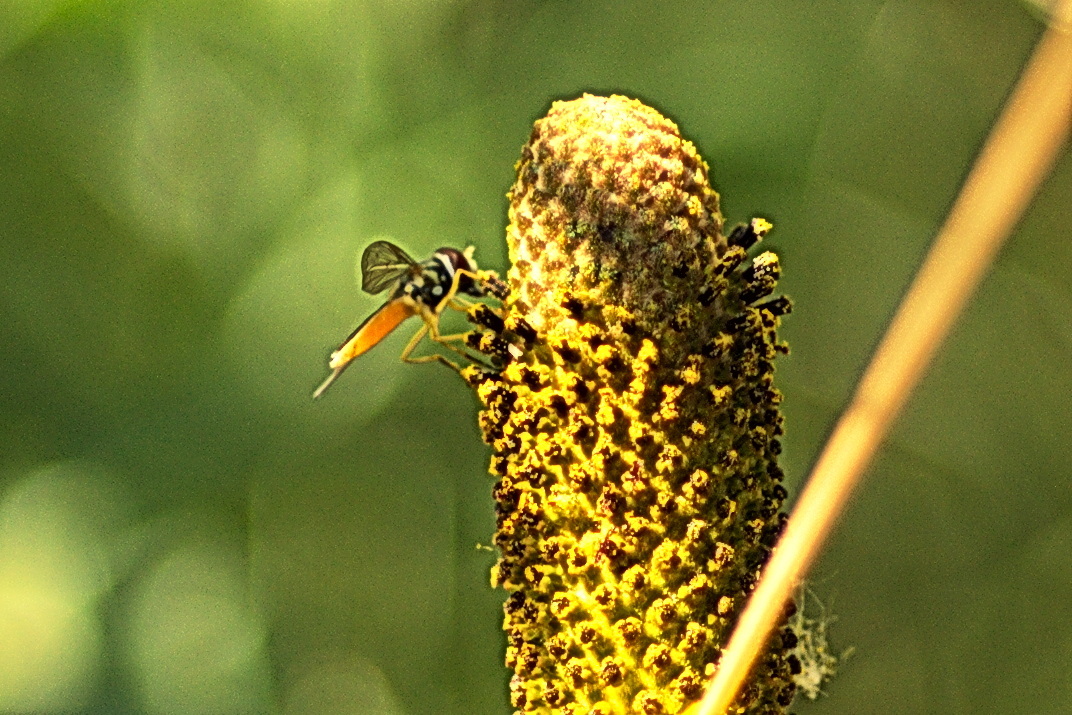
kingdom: Animalia
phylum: Arthropoda
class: Insecta
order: Diptera
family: Syrphidae
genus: Toxomerus
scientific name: Toxomerus marginatus
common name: Syrphid fly
